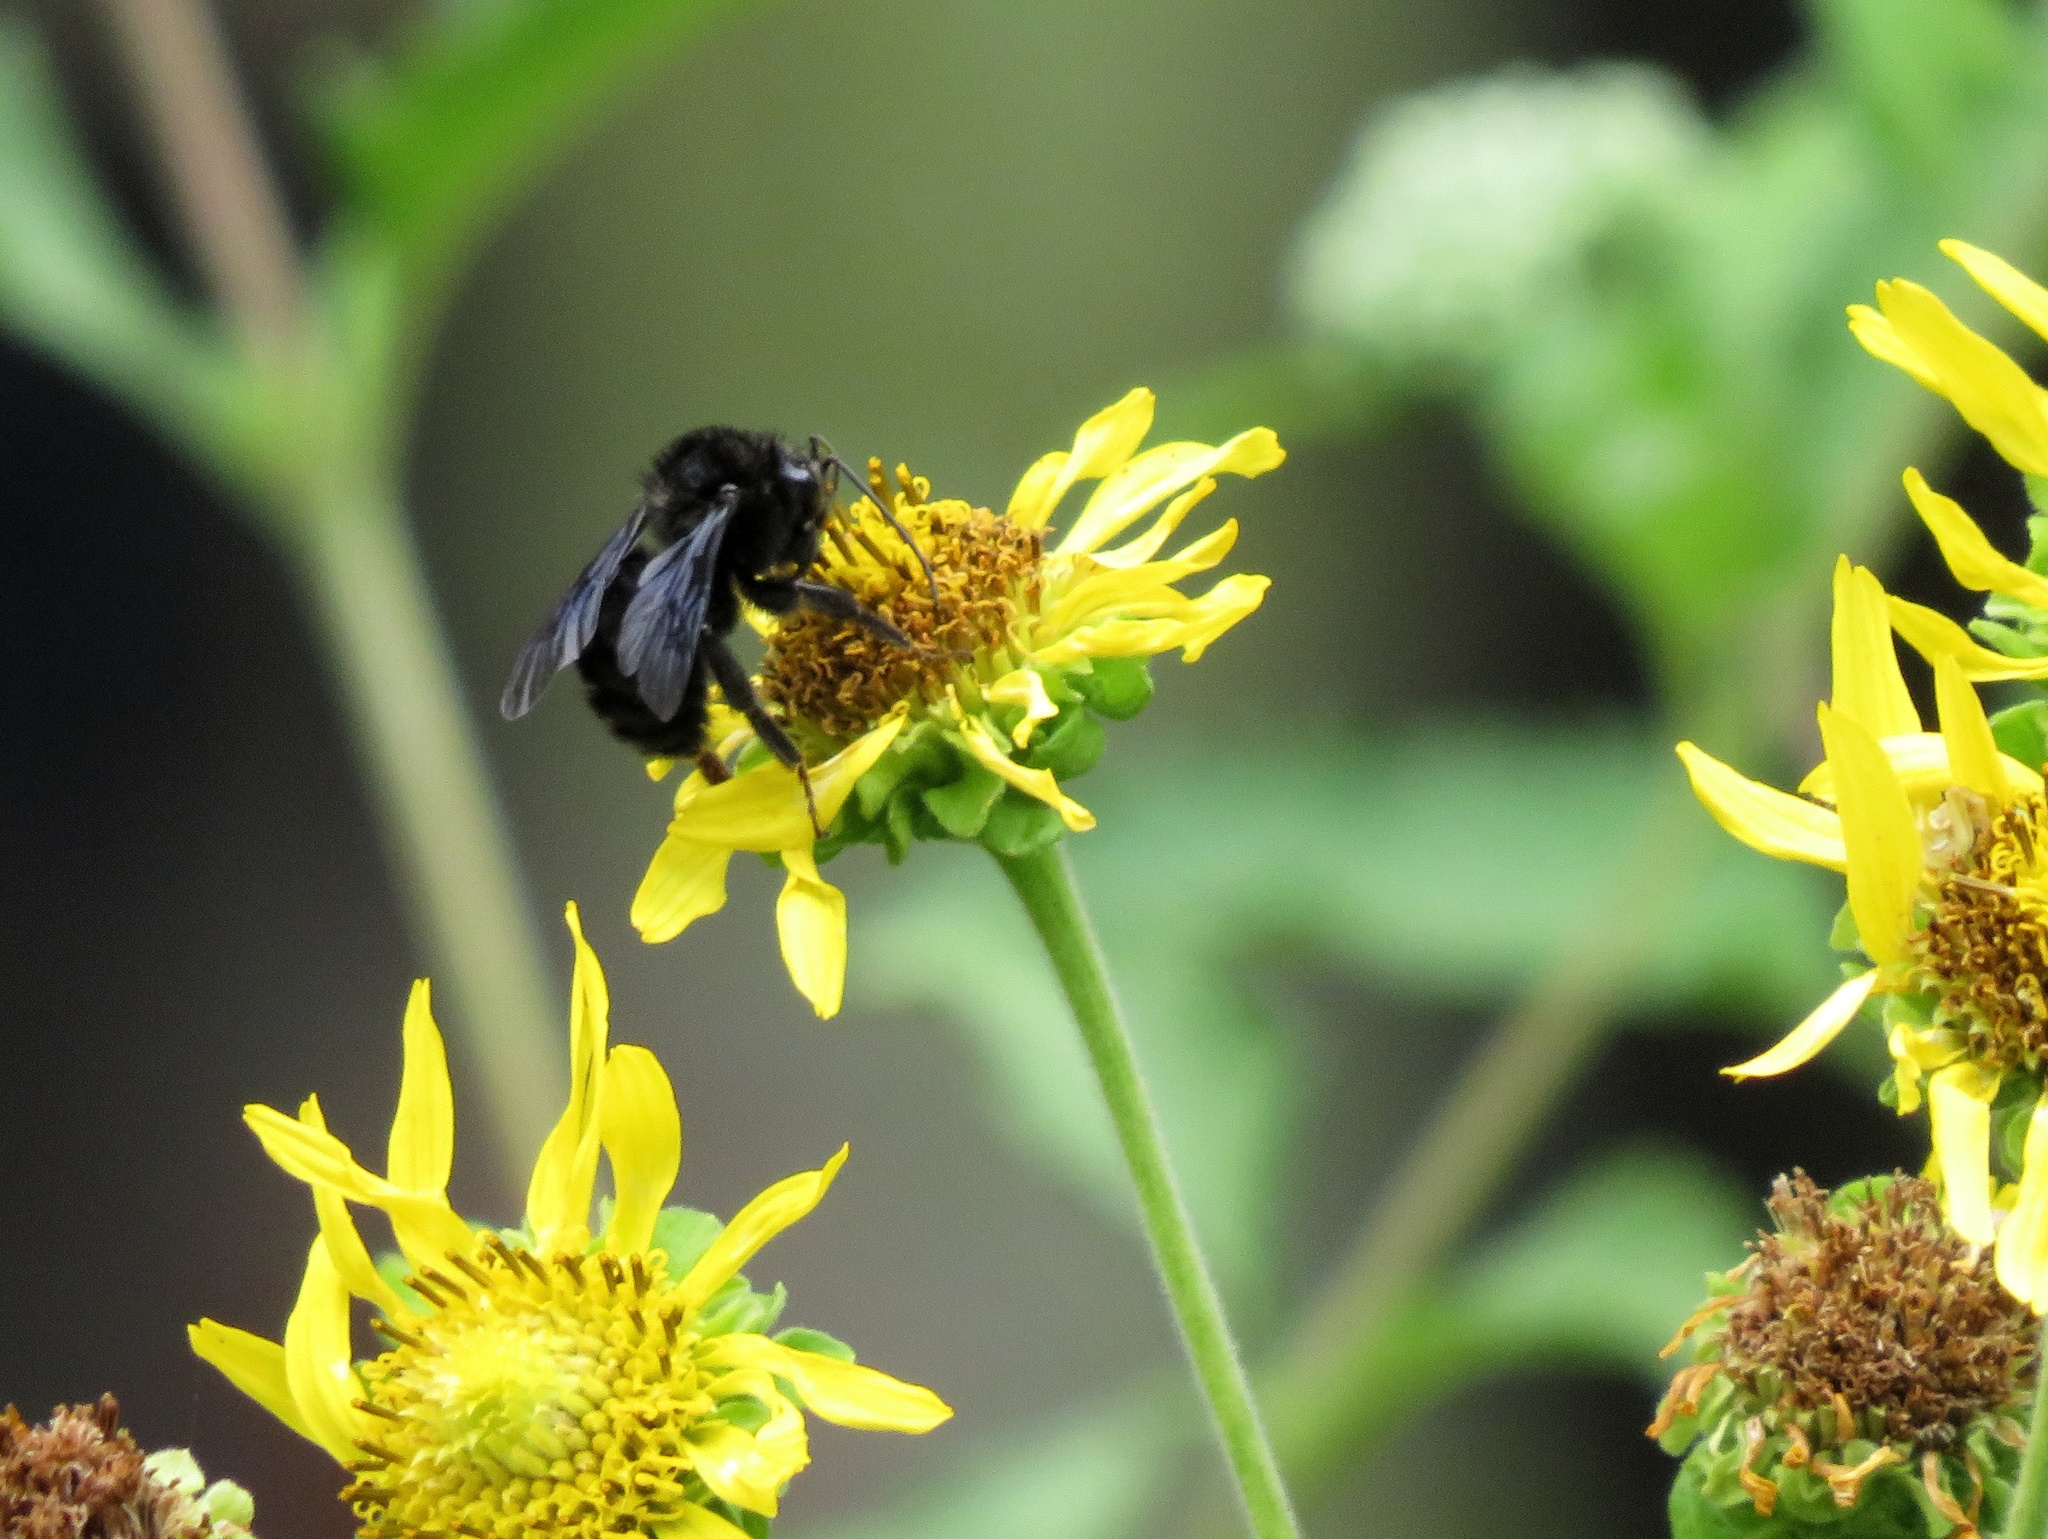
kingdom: Animalia
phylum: Arthropoda
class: Insecta
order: Hymenoptera
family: Apidae
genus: Bombus
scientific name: Bombus pauloensis
